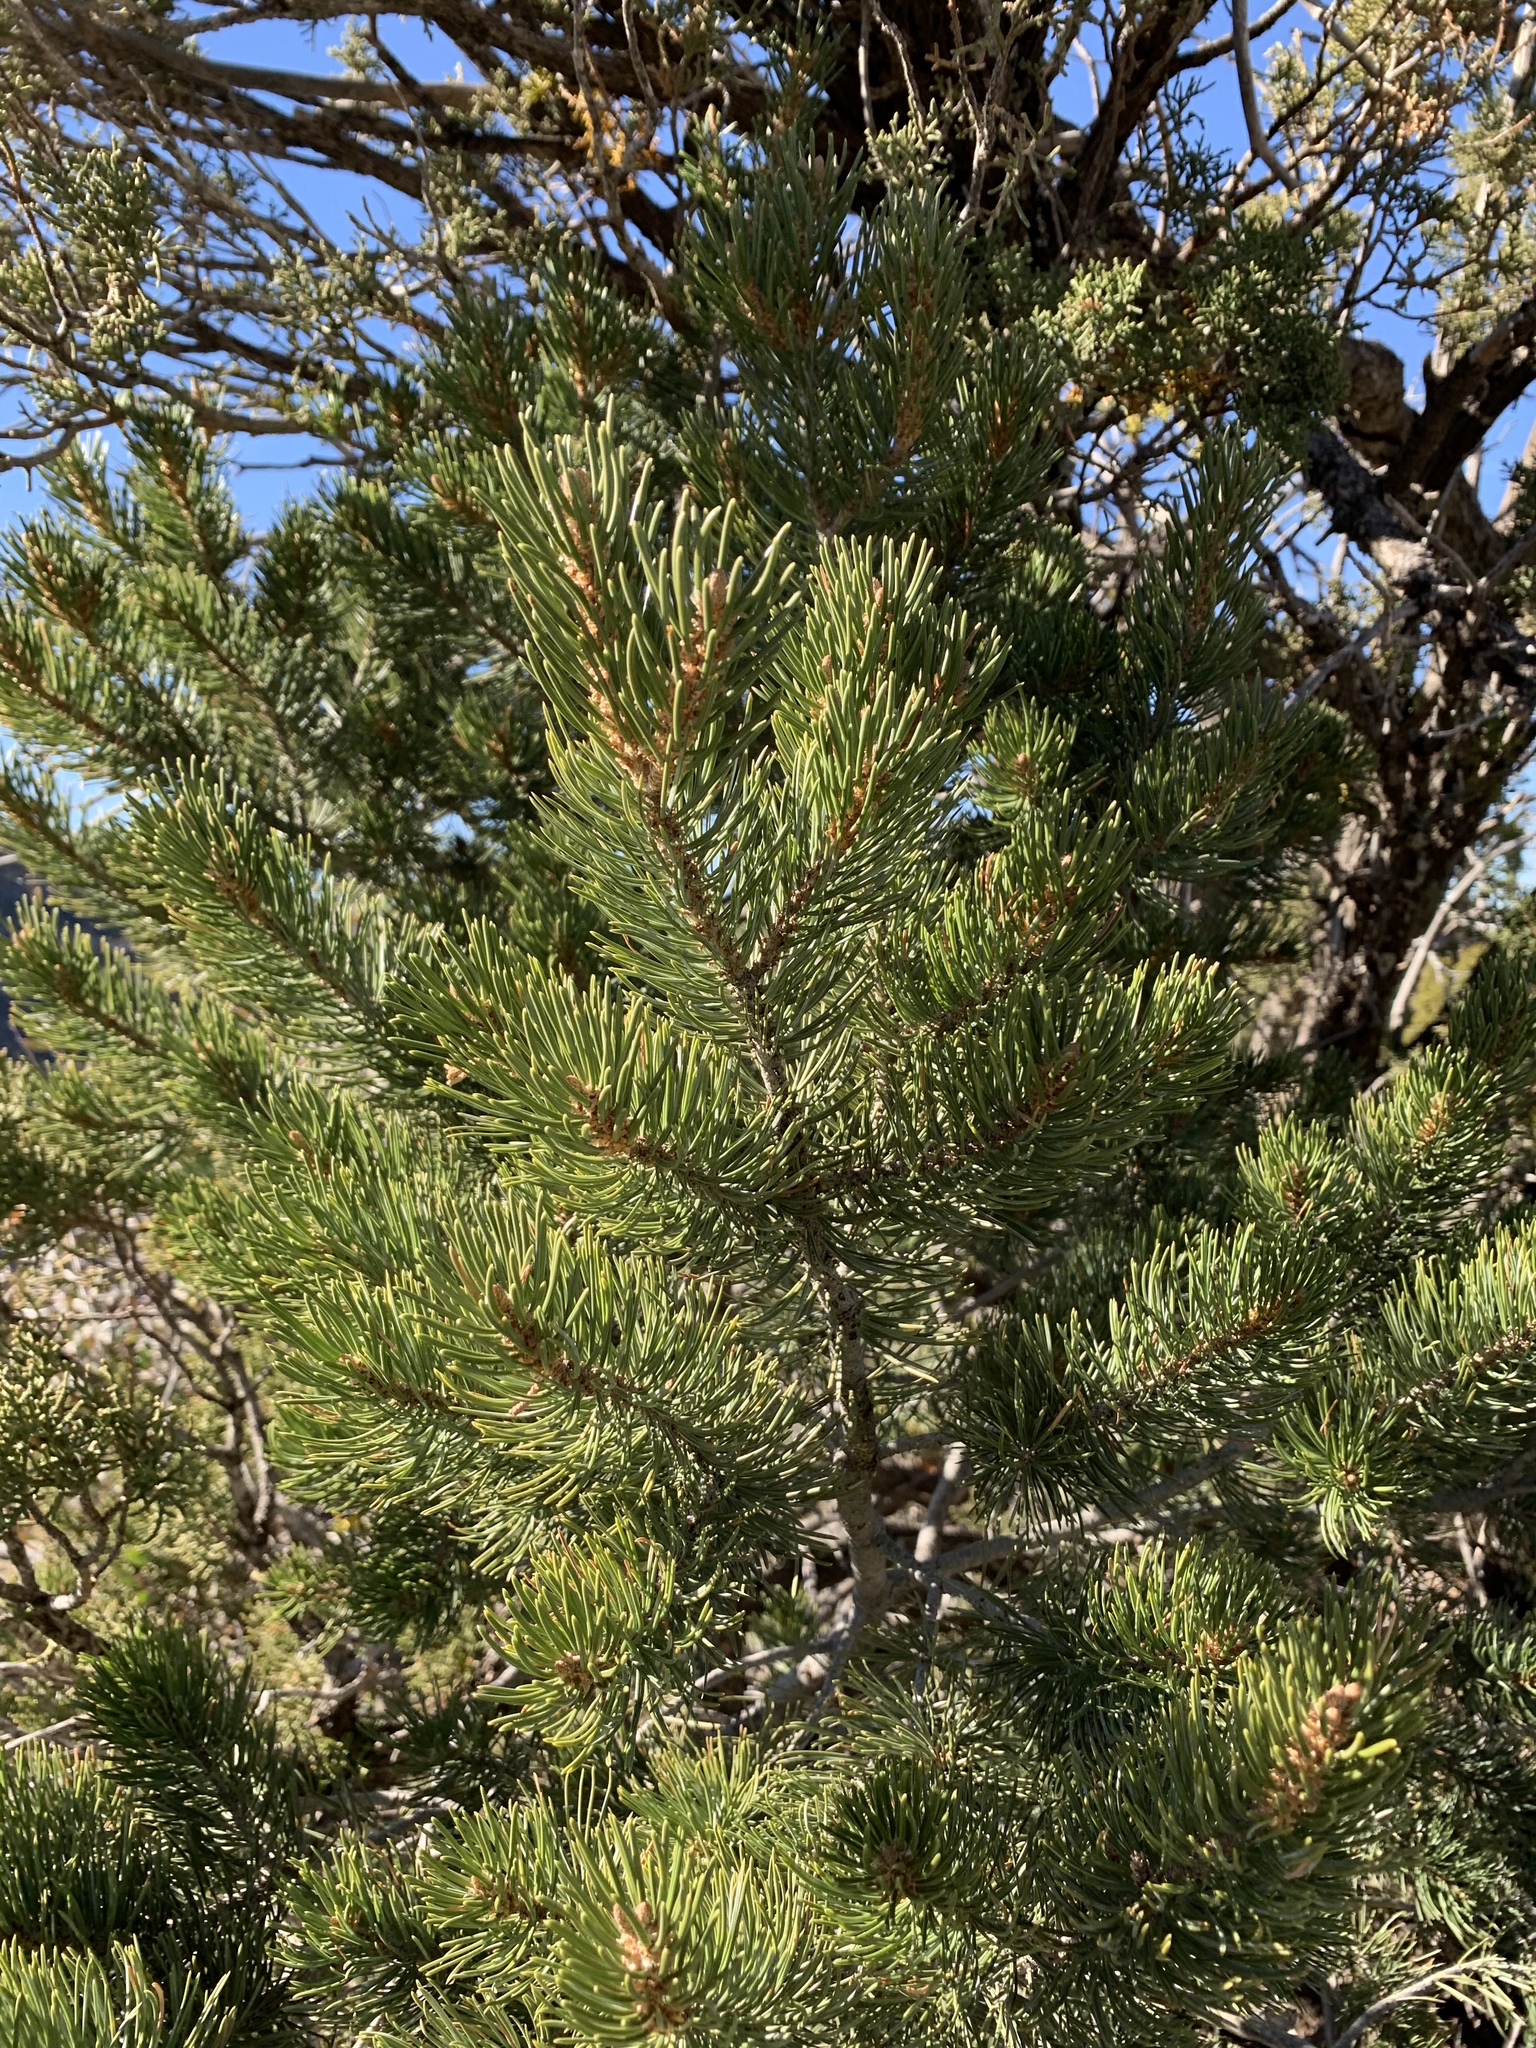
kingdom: Plantae
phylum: Tracheophyta
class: Pinopsida
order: Pinales
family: Pinaceae
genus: Pinus
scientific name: Pinus edulis
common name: Colorado pinyon
